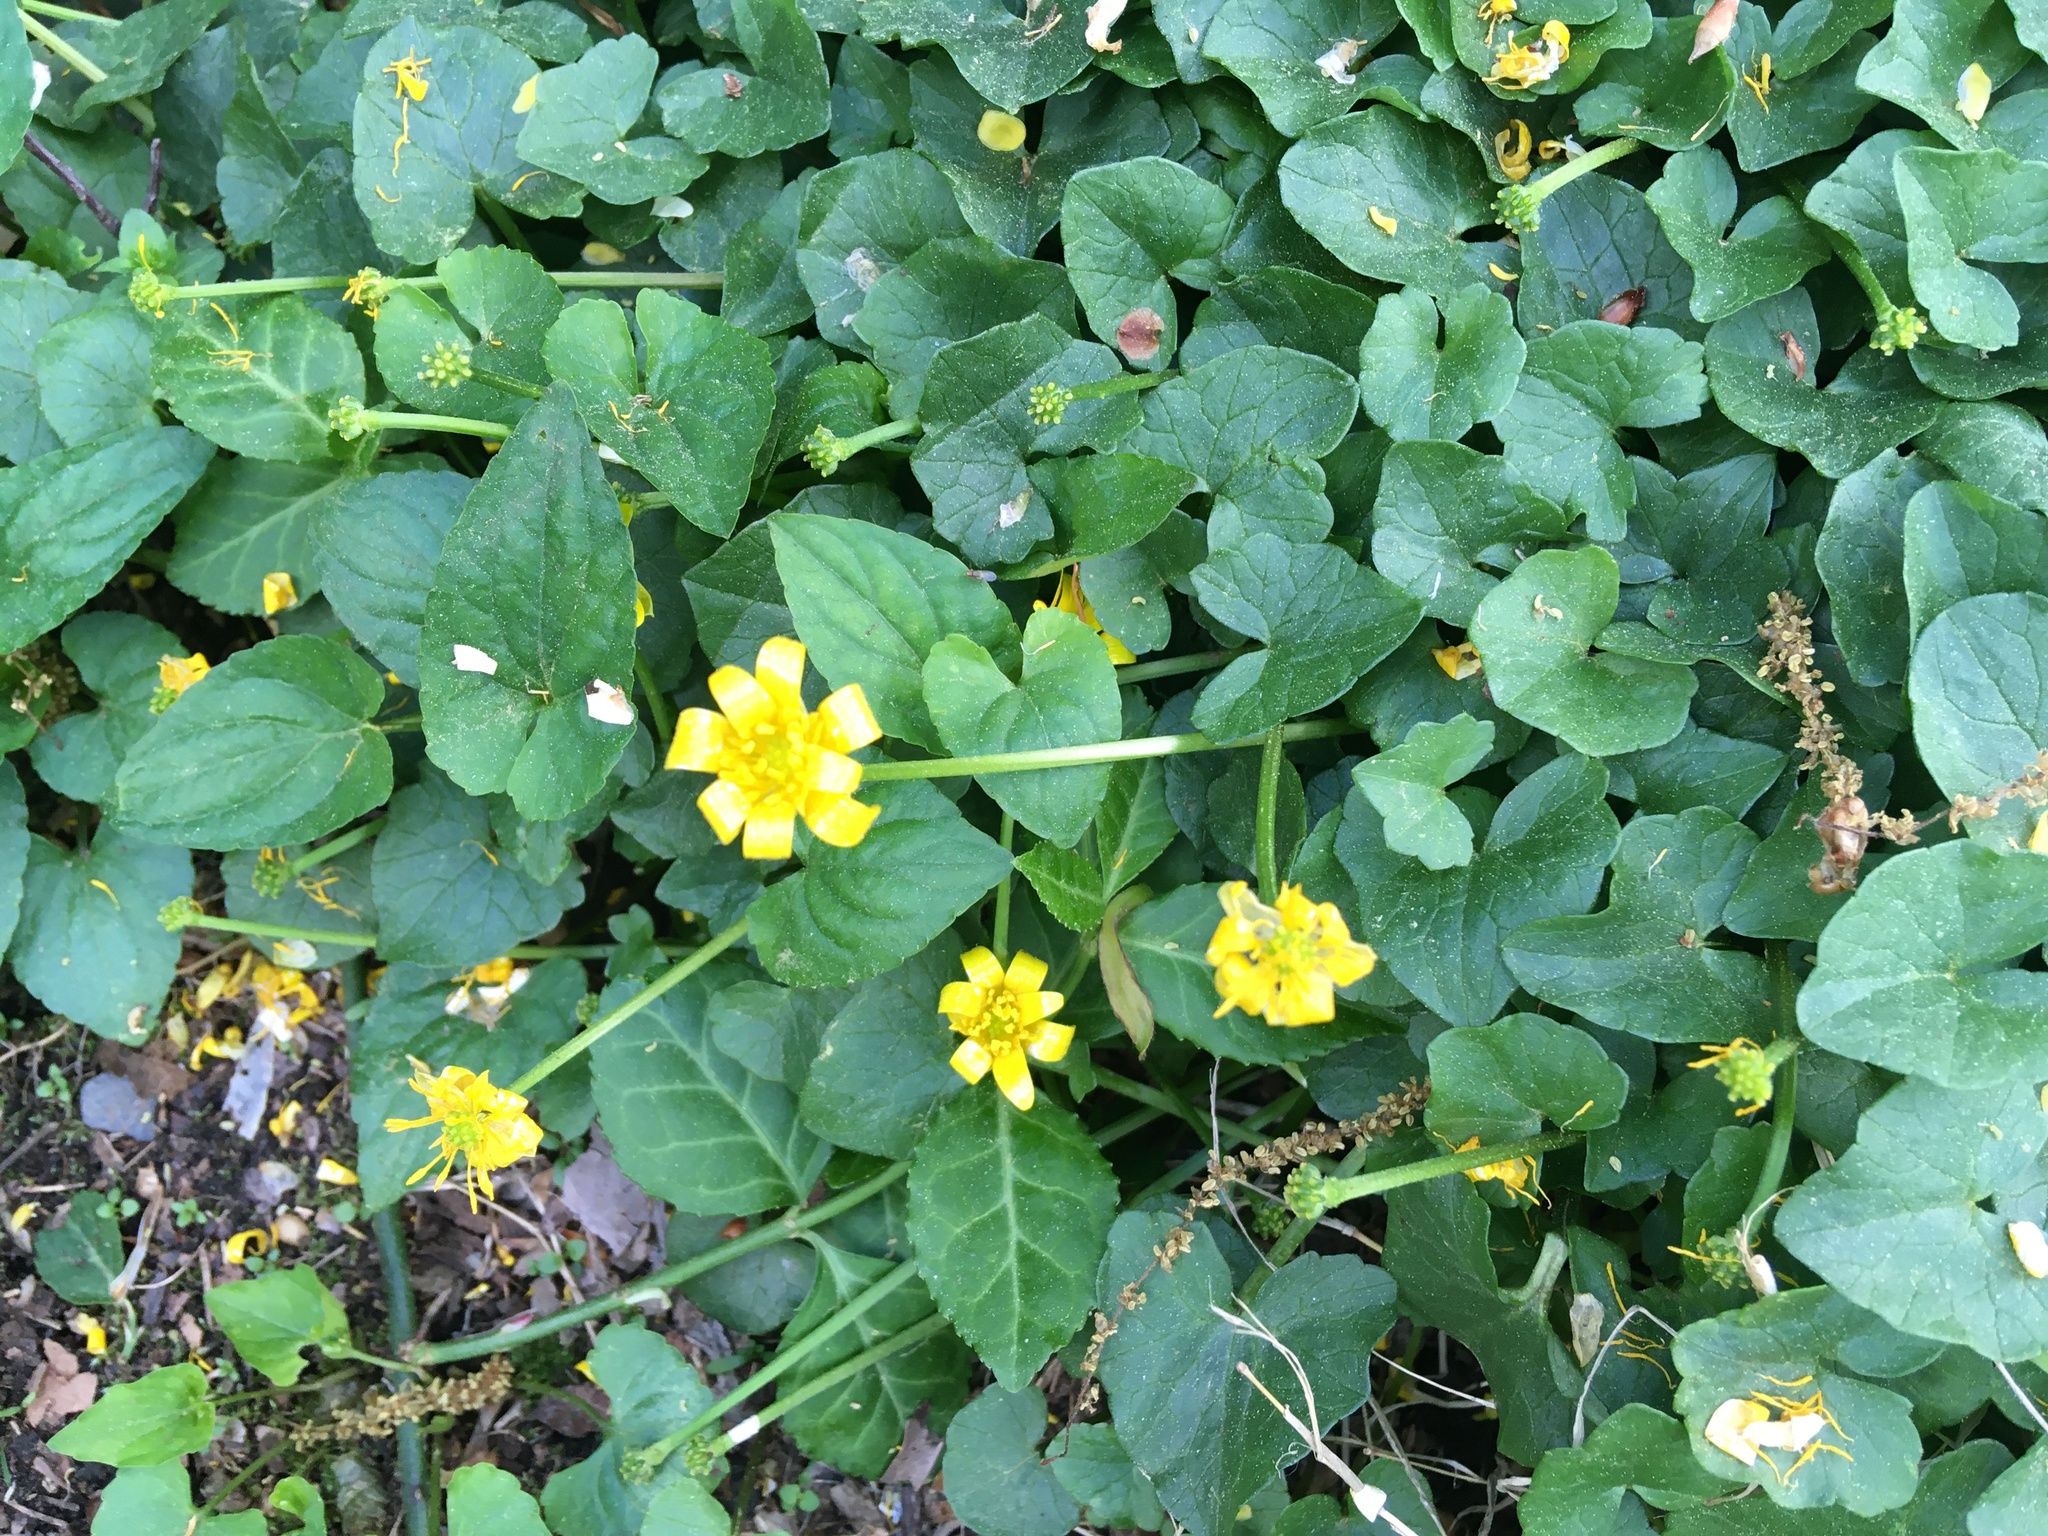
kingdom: Plantae
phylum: Tracheophyta
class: Magnoliopsida
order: Ranunculales
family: Ranunculaceae
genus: Ficaria
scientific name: Ficaria verna
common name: Lesser celandine
